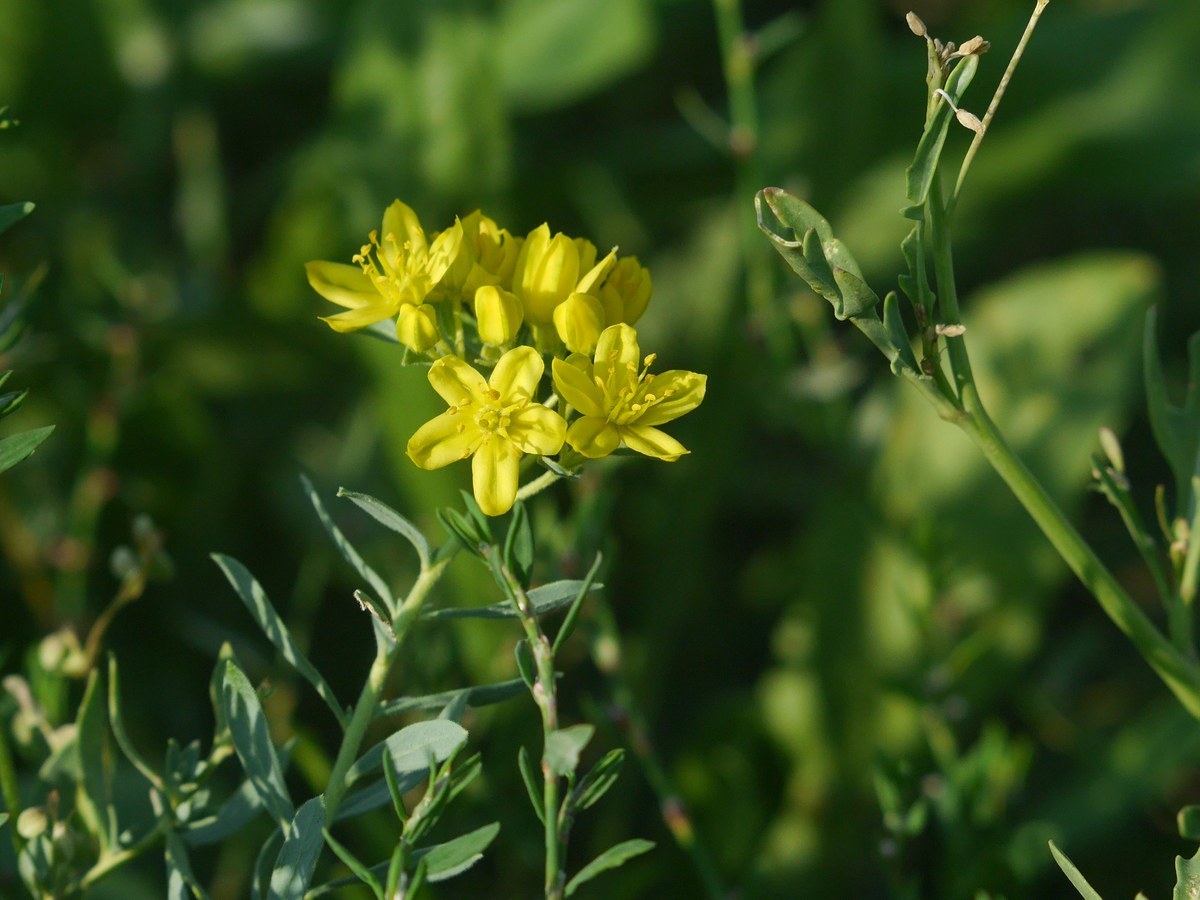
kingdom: Plantae
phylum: Tracheophyta
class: Magnoliopsida
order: Sapindales
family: Rutaceae
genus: Haplophyllum
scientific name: Haplophyllum suaveolens
